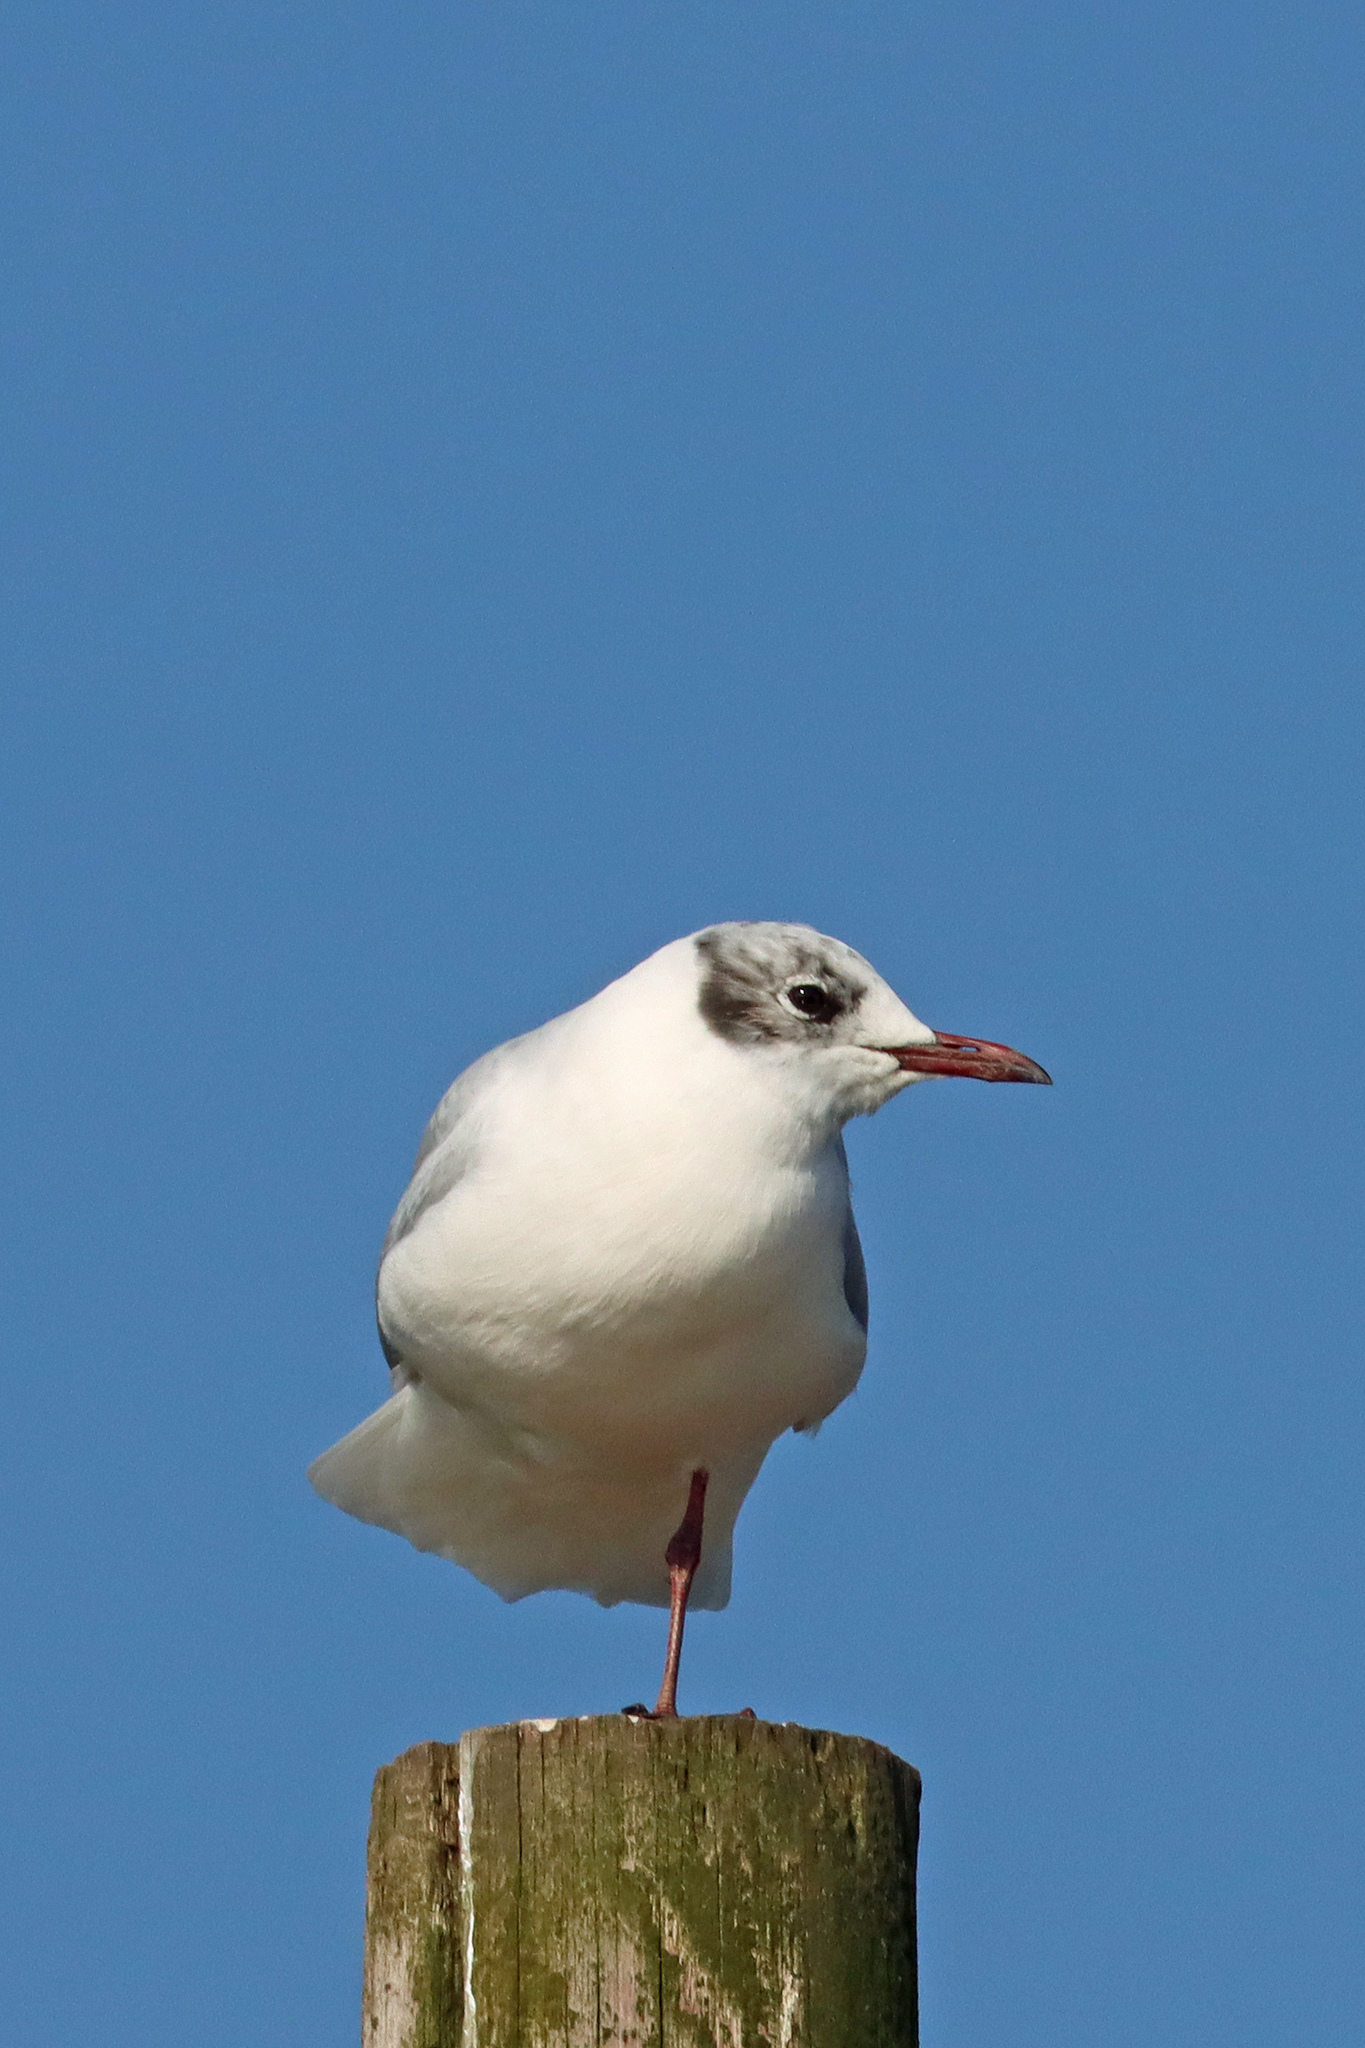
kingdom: Animalia
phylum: Chordata
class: Aves
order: Charadriiformes
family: Laridae
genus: Chroicocephalus
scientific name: Chroicocephalus ridibundus
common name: Black-headed gull
